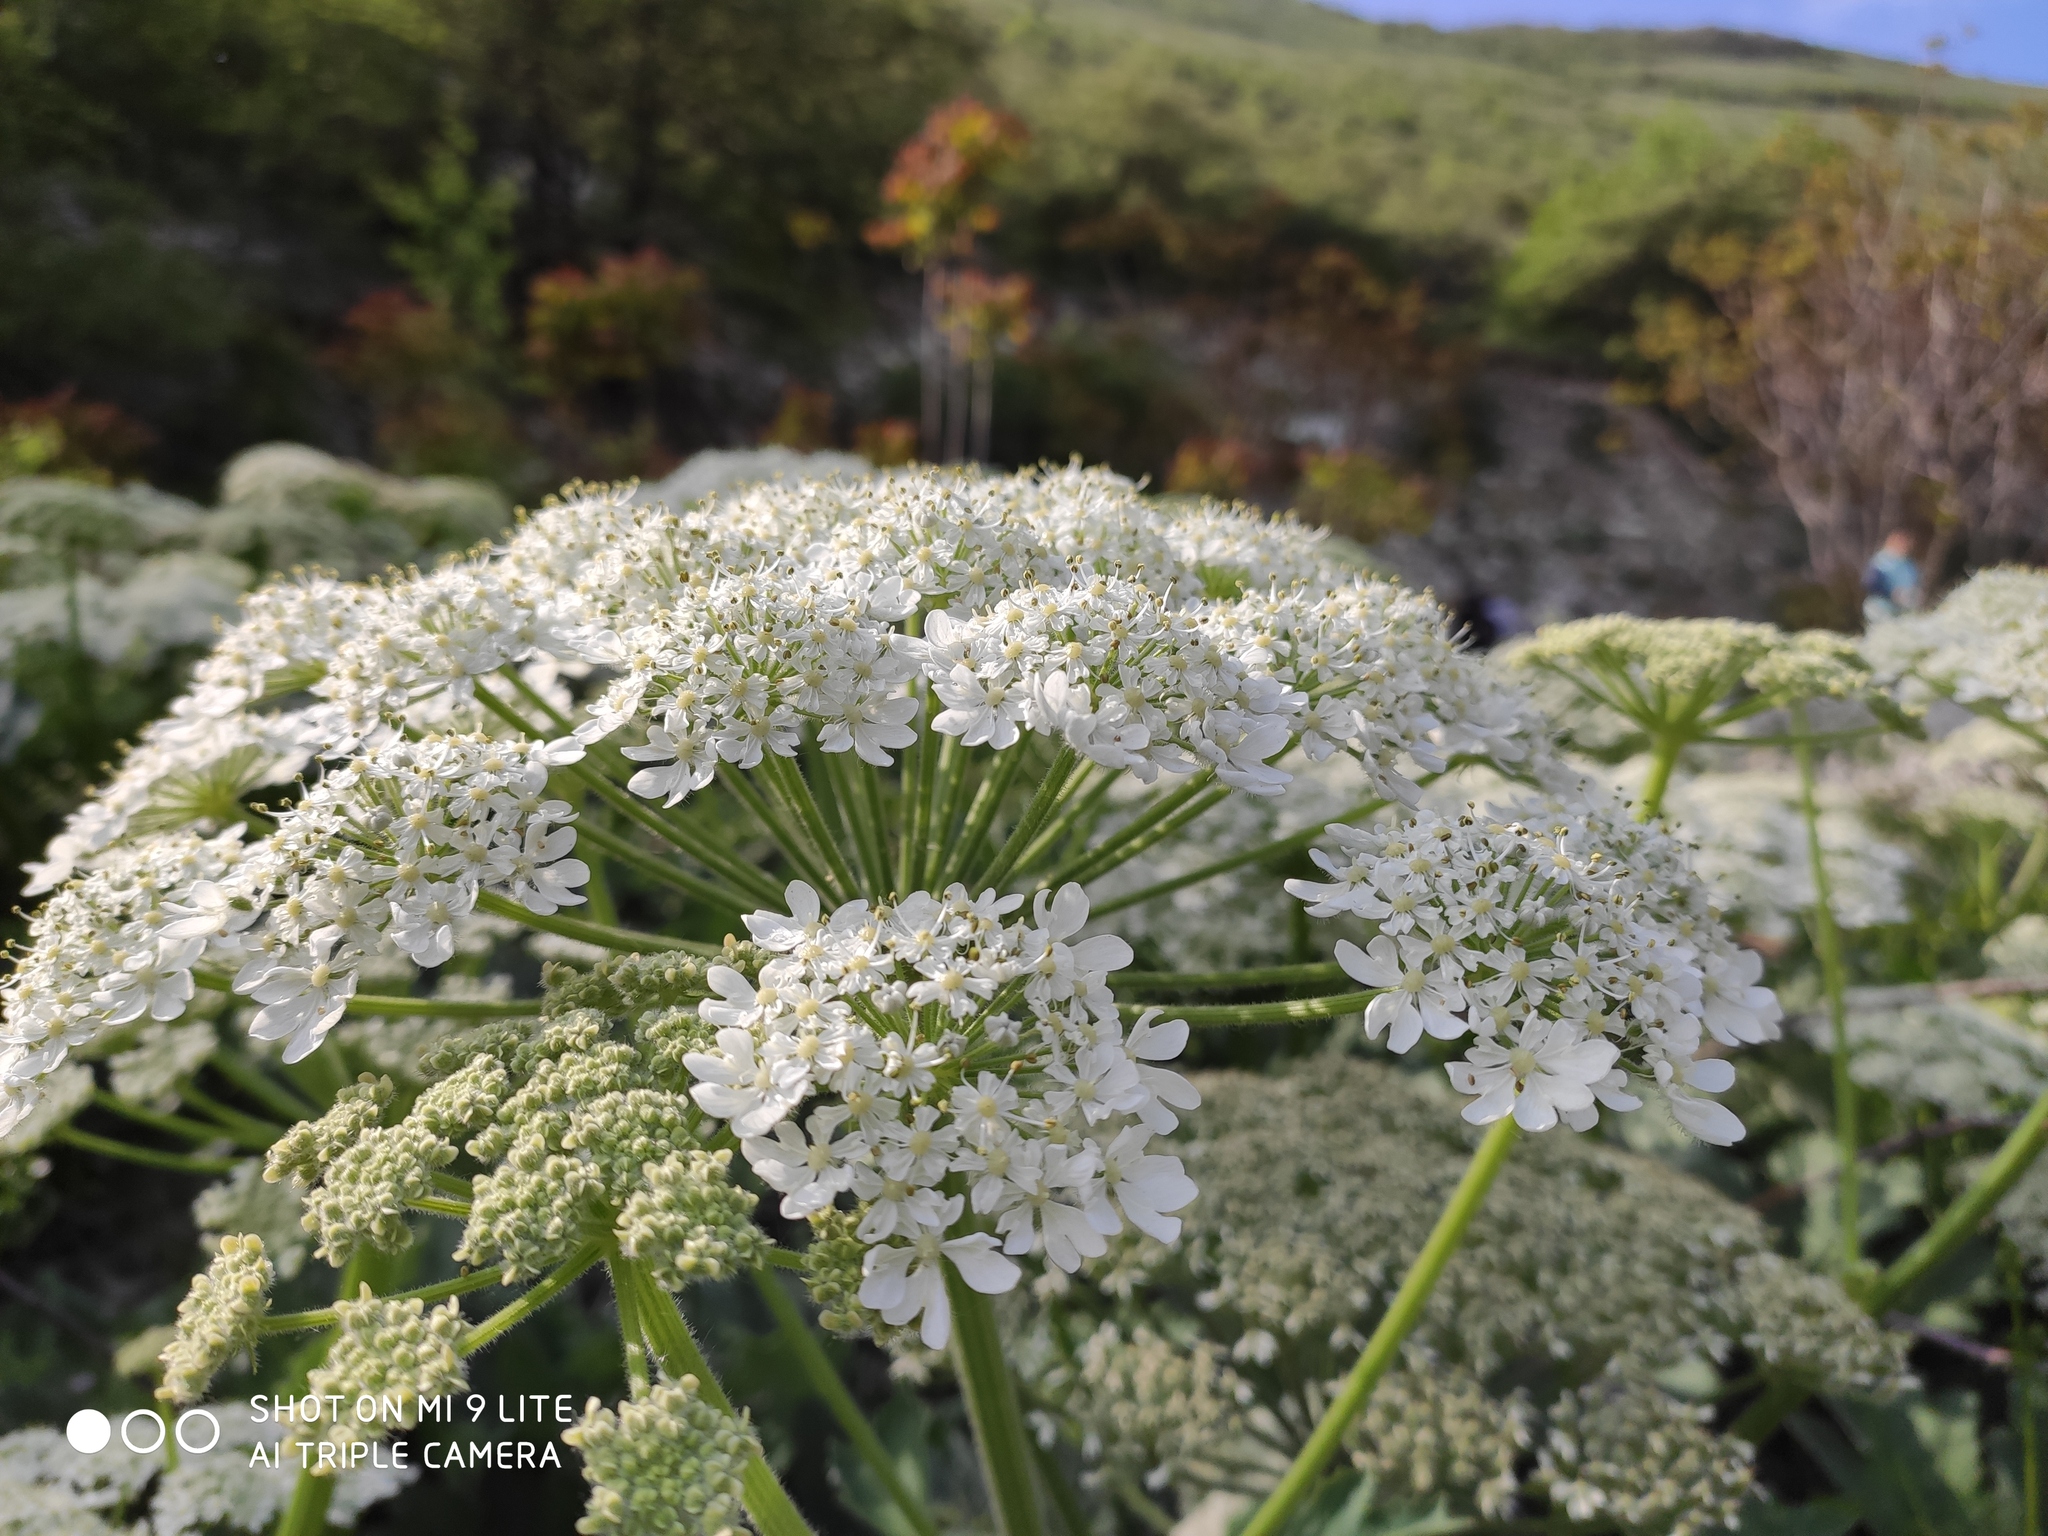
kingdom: Plantae
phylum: Tracheophyta
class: Magnoliopsida
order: Apiales
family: Apiaceae
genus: Heracleum
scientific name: Heracleum stevenii
